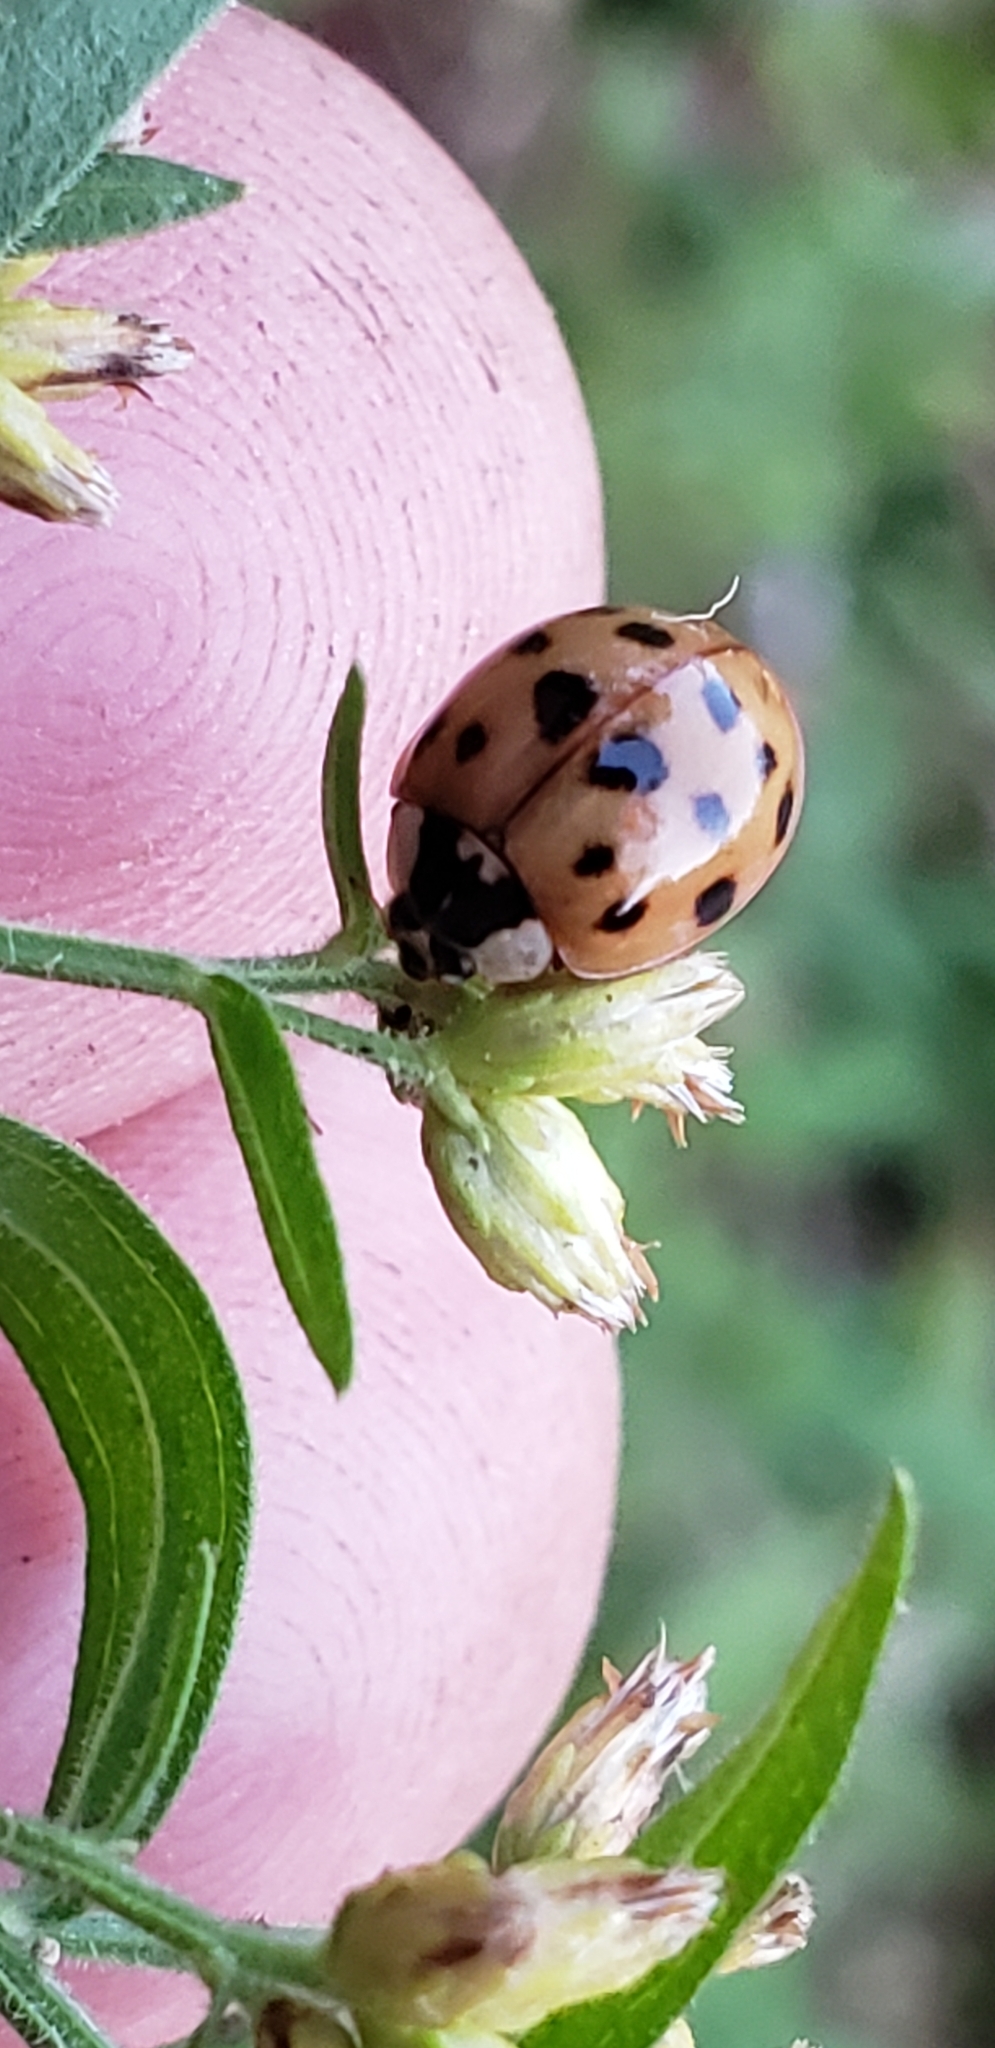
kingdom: Animalia
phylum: Arthropoda
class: Insecta
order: Coleoptera
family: Coccinellidae
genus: Harmonia
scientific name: Harmonia axyridis
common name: Harlequin ladybird
